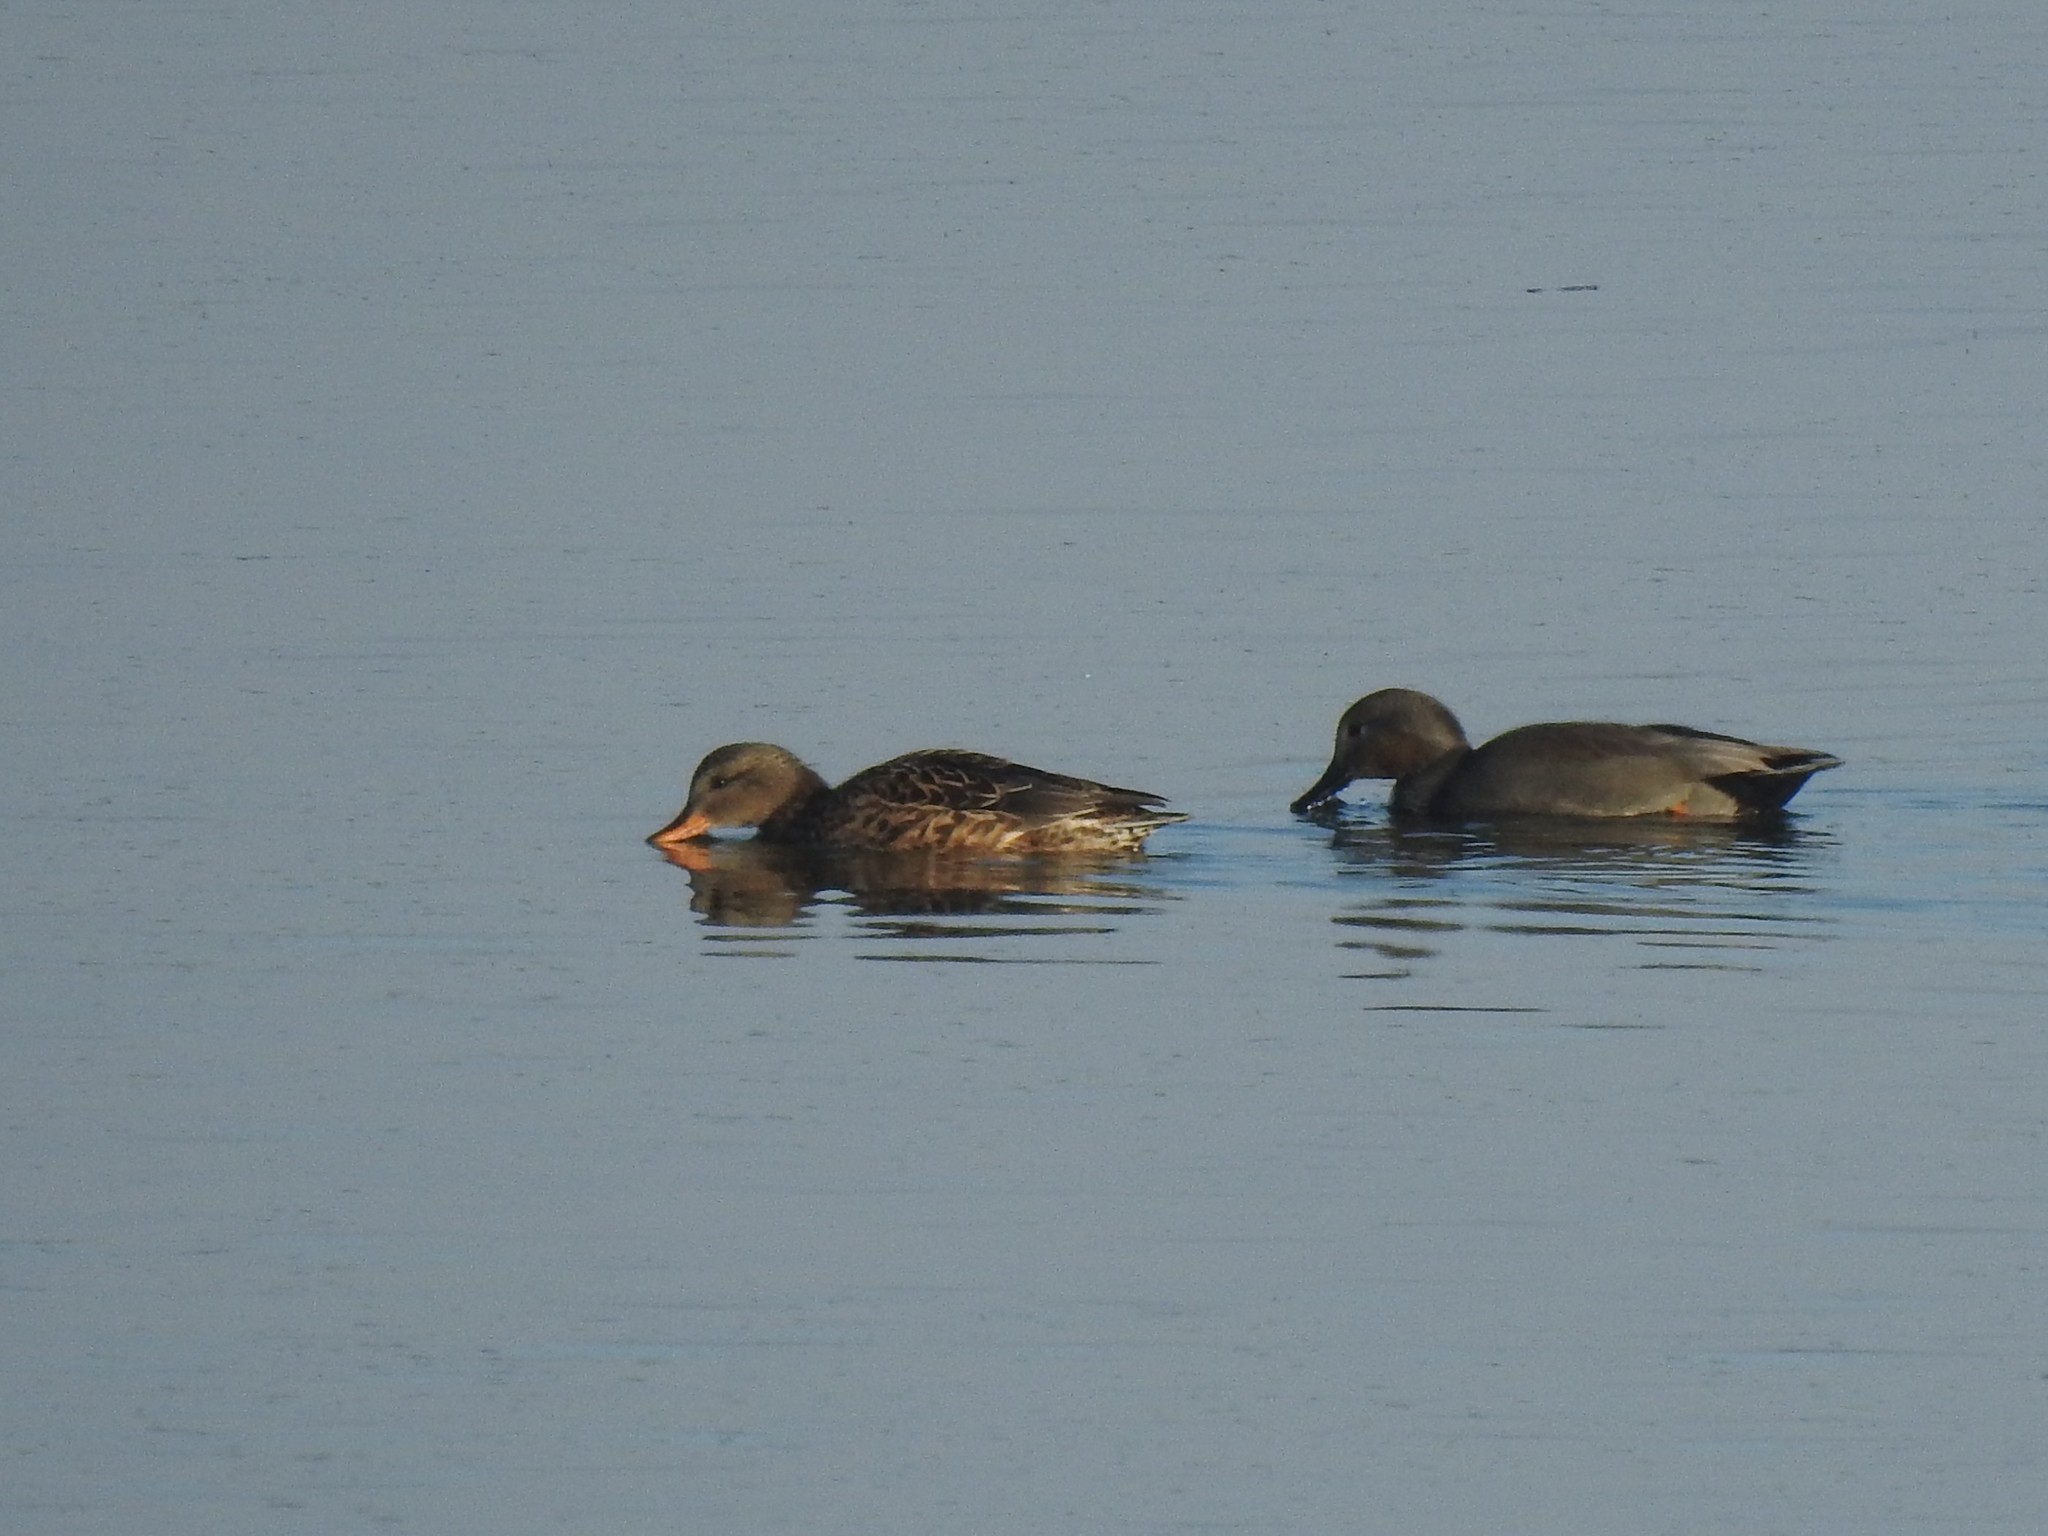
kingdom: Animalia
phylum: Chordata
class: Aves
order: Anseriformes
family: Anatidae
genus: Mareca
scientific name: Mareca strepera
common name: Gadwall
